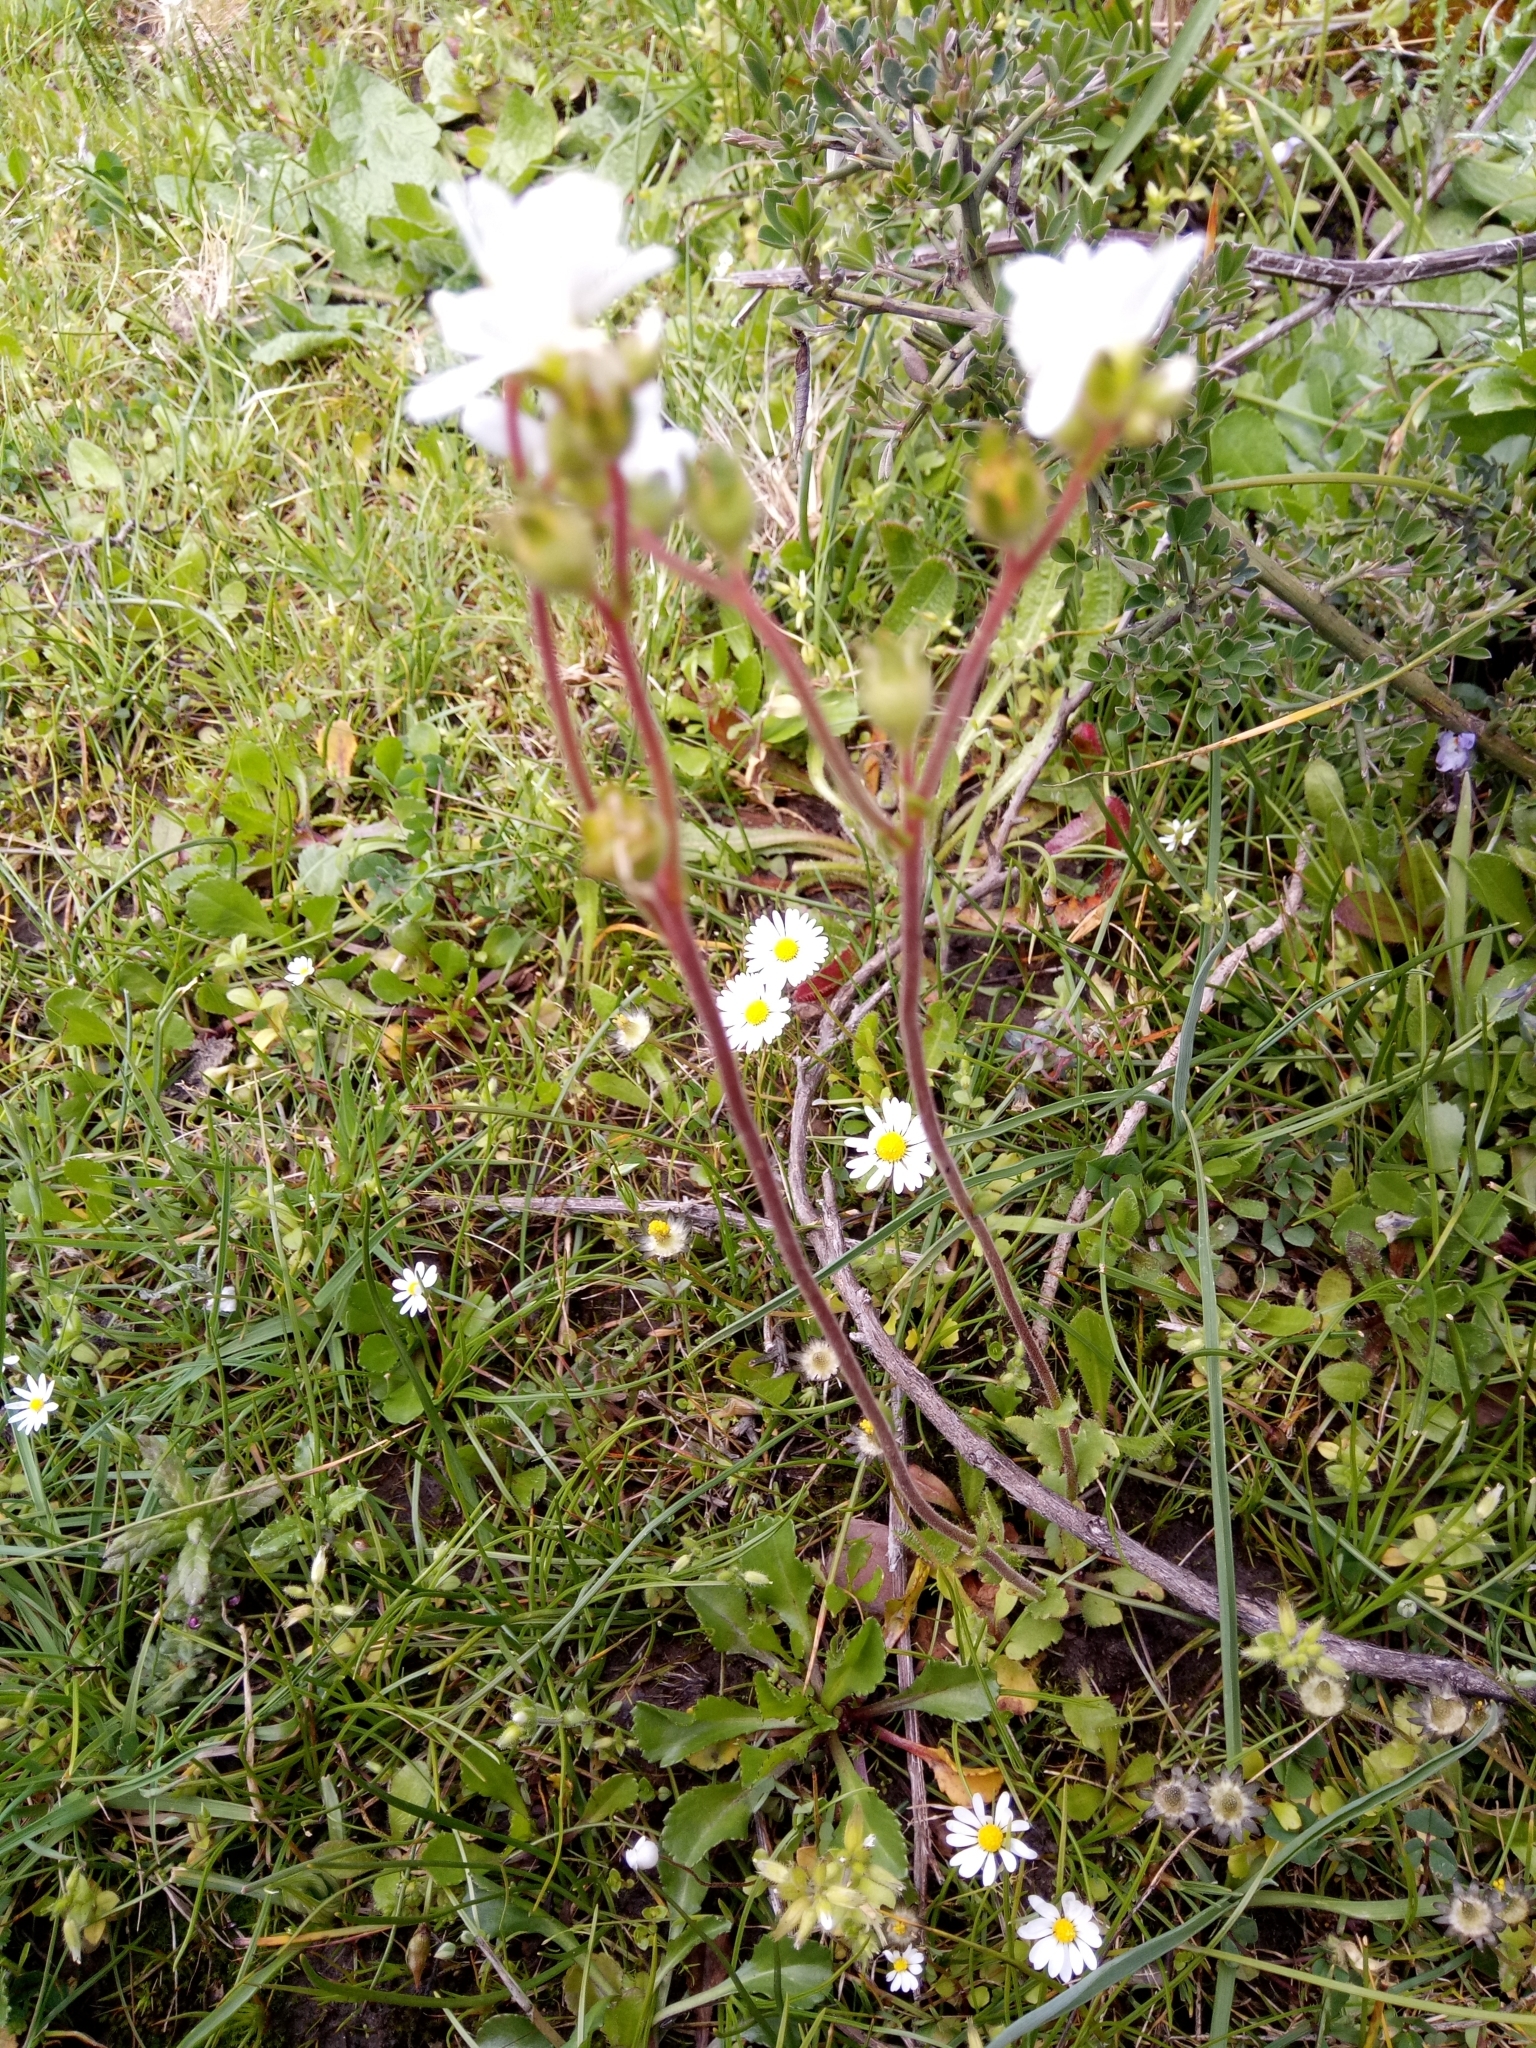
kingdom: Plantae
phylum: Tracheophyta
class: Magnoliopsida
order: Saxifragales
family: Saxifragaceae
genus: Saxifraga
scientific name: Saxifraga carpetana
